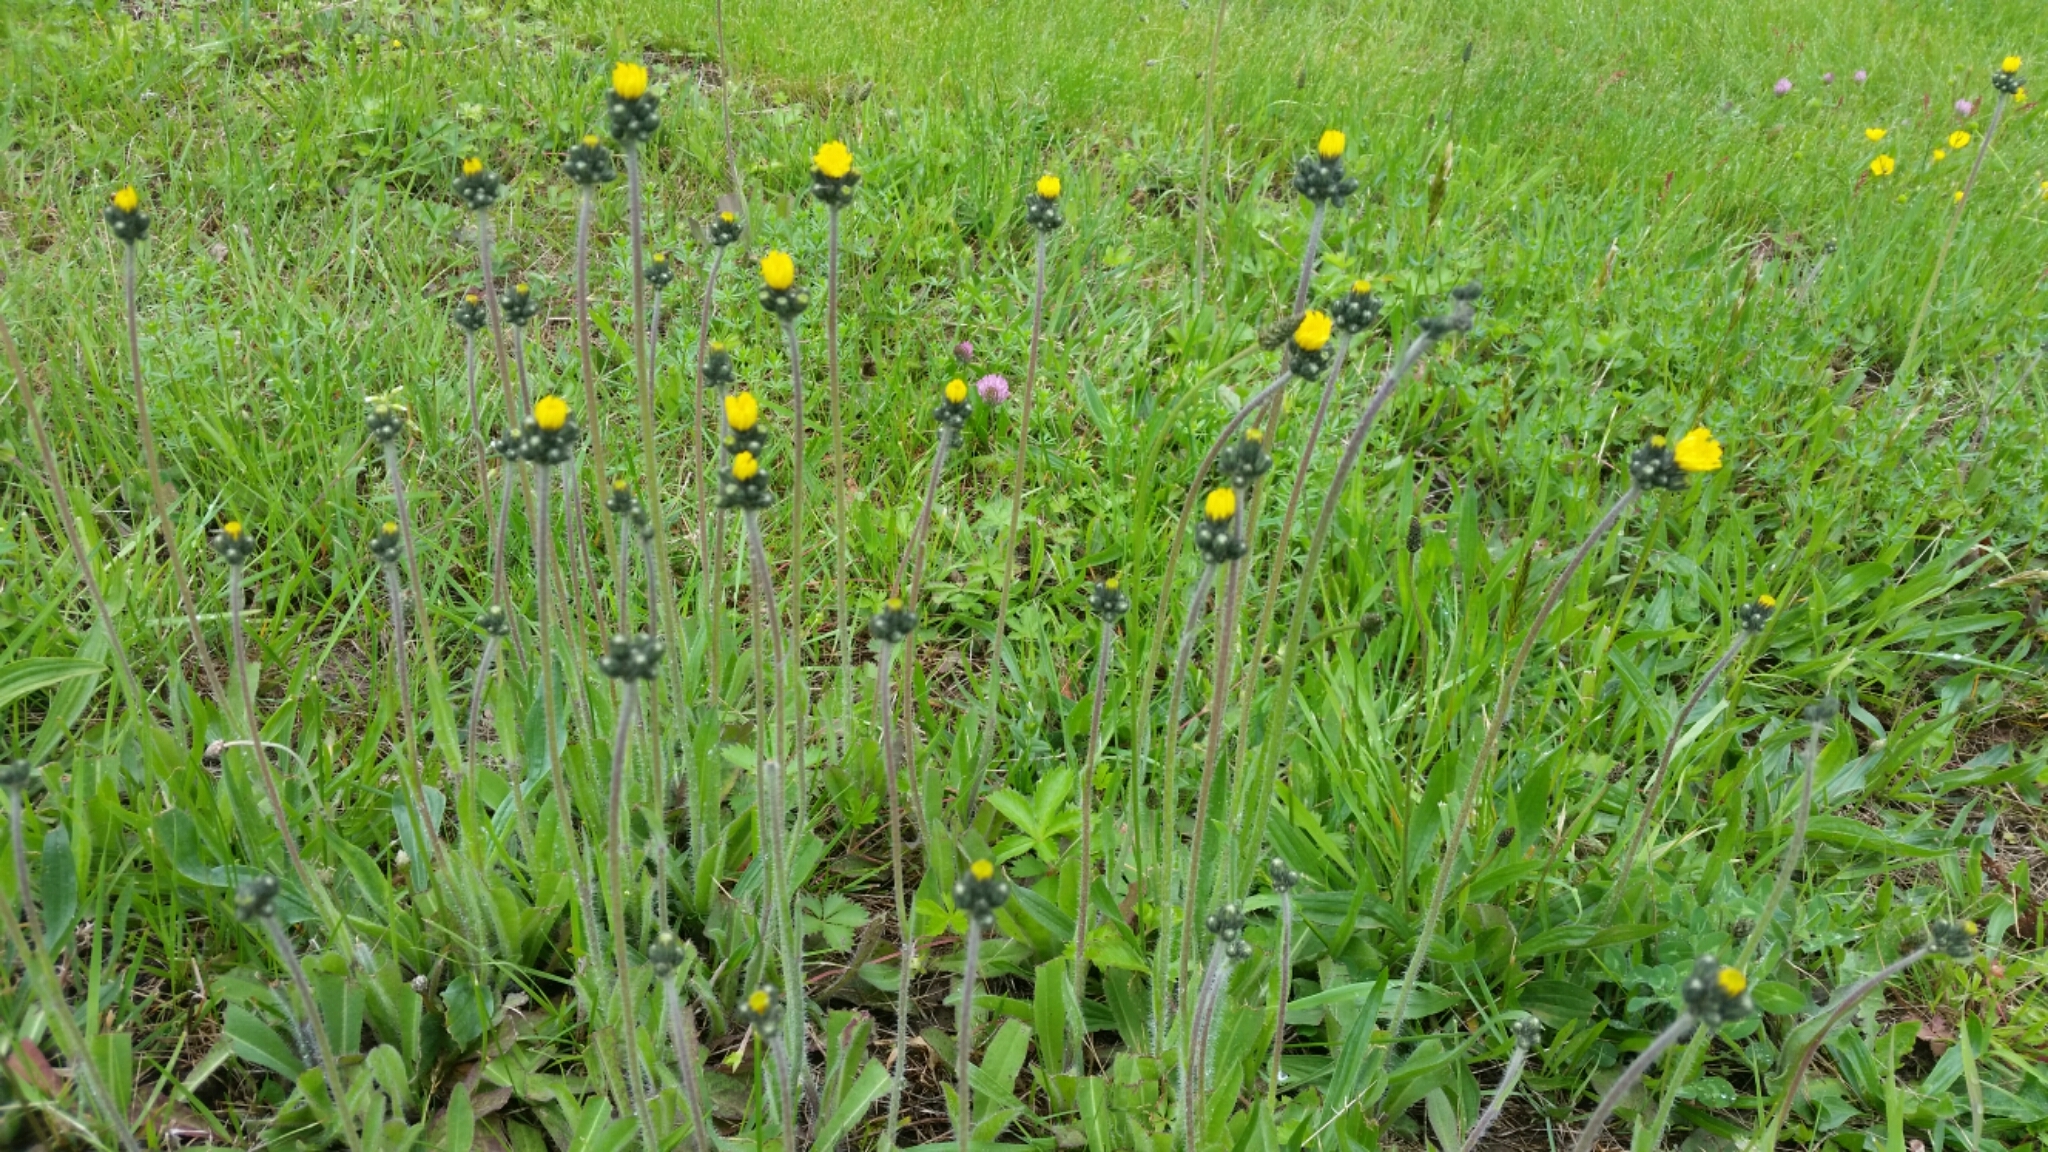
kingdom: Plantae
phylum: Tracheophyta
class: Magnoliopsida
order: Asterales
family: Asteraceae
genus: Pilosella
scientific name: Pilosella caespitosa
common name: Yellow fox-and-cubs
